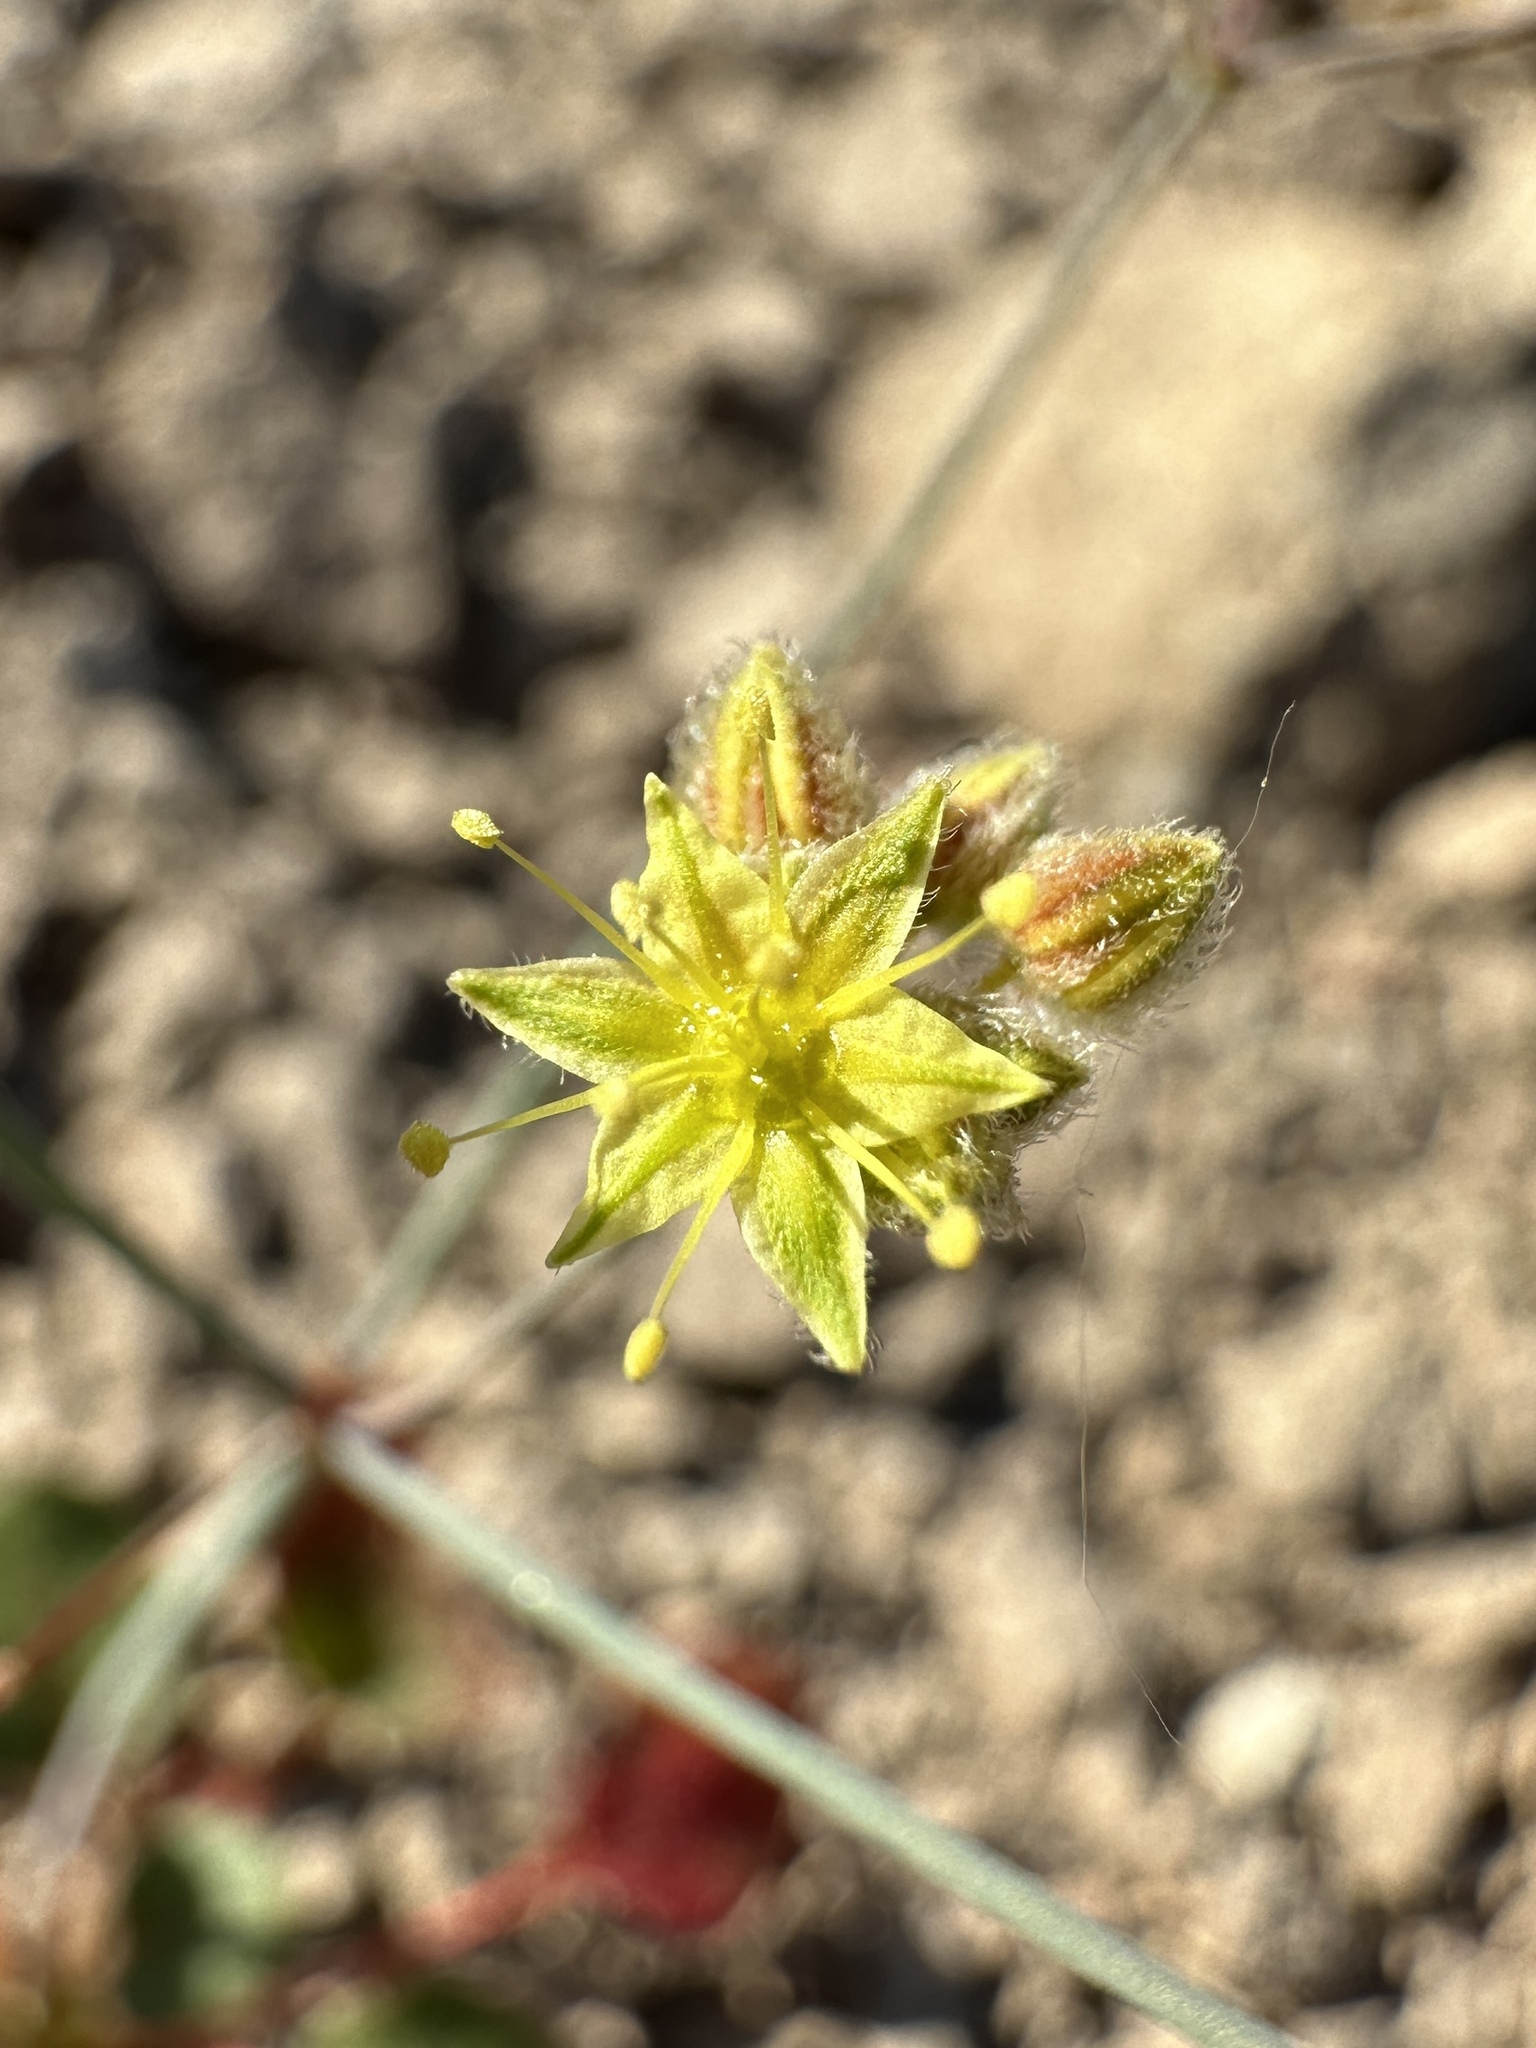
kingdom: Plantae
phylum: Tracheophyta
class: Magnoliopsida
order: Caryophyllales
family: Polygonaceae
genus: Eriogonum
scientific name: Eriogonum inflatum
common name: Desert trumpet
